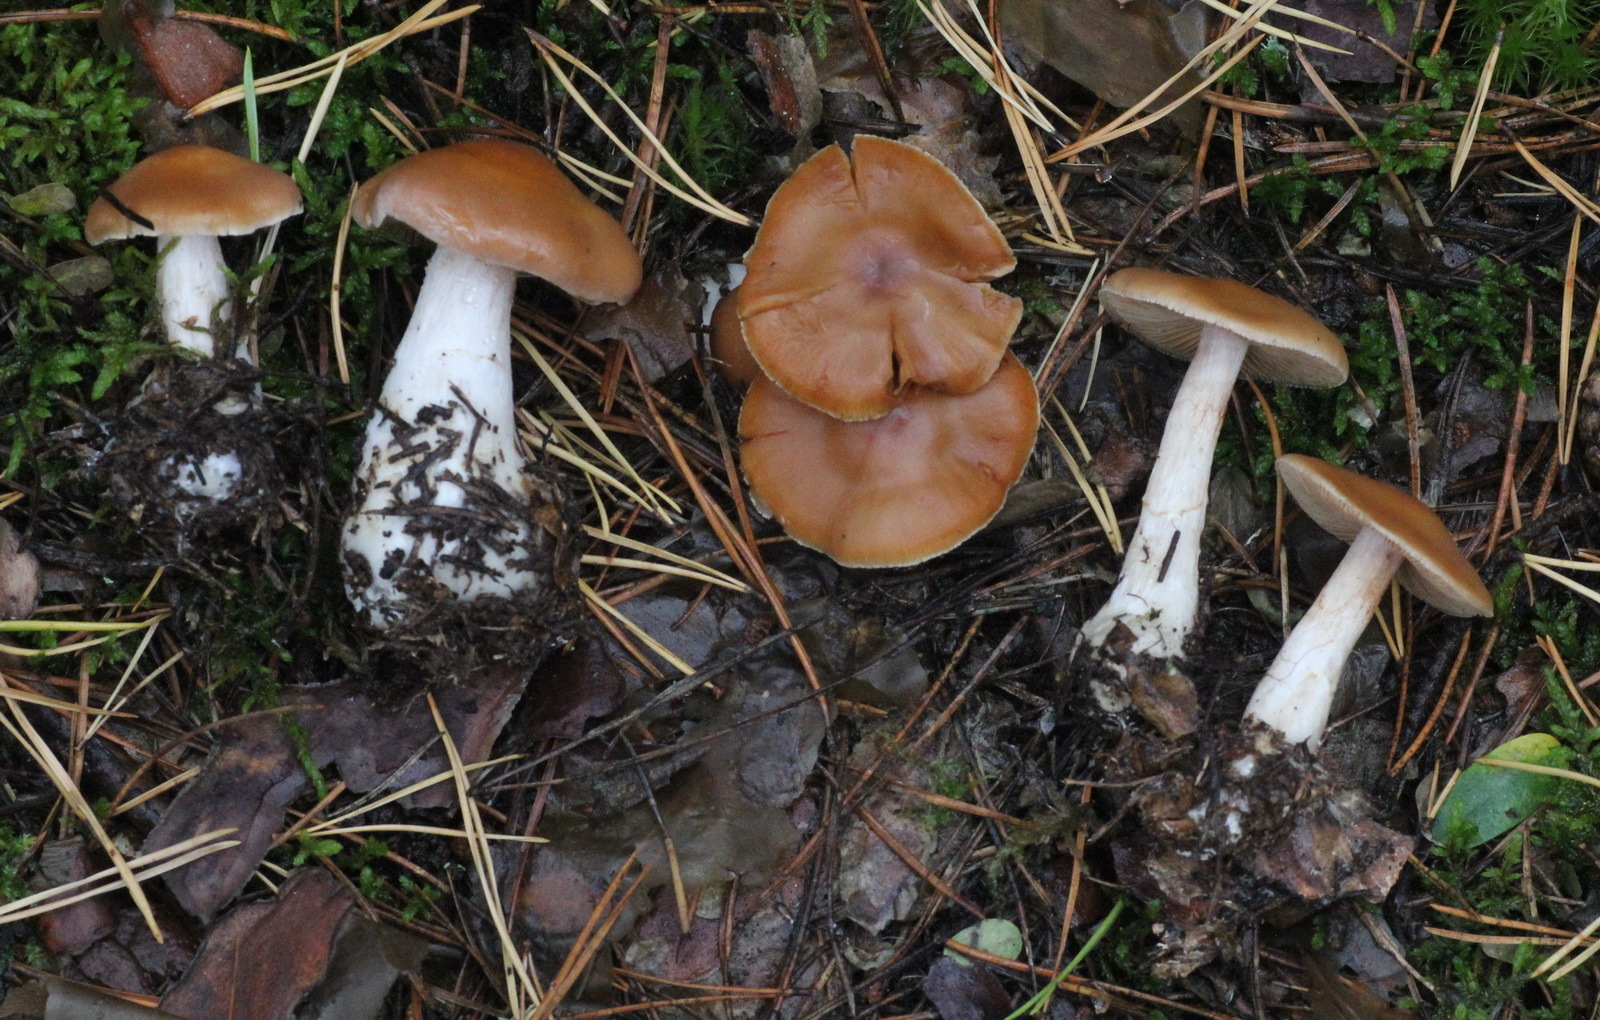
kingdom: Fungi
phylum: Basidiomycota
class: Agaricomycetes
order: Agaricales
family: Cortinariaceae
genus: Cortinarius
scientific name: Cortinarius armeniacus
